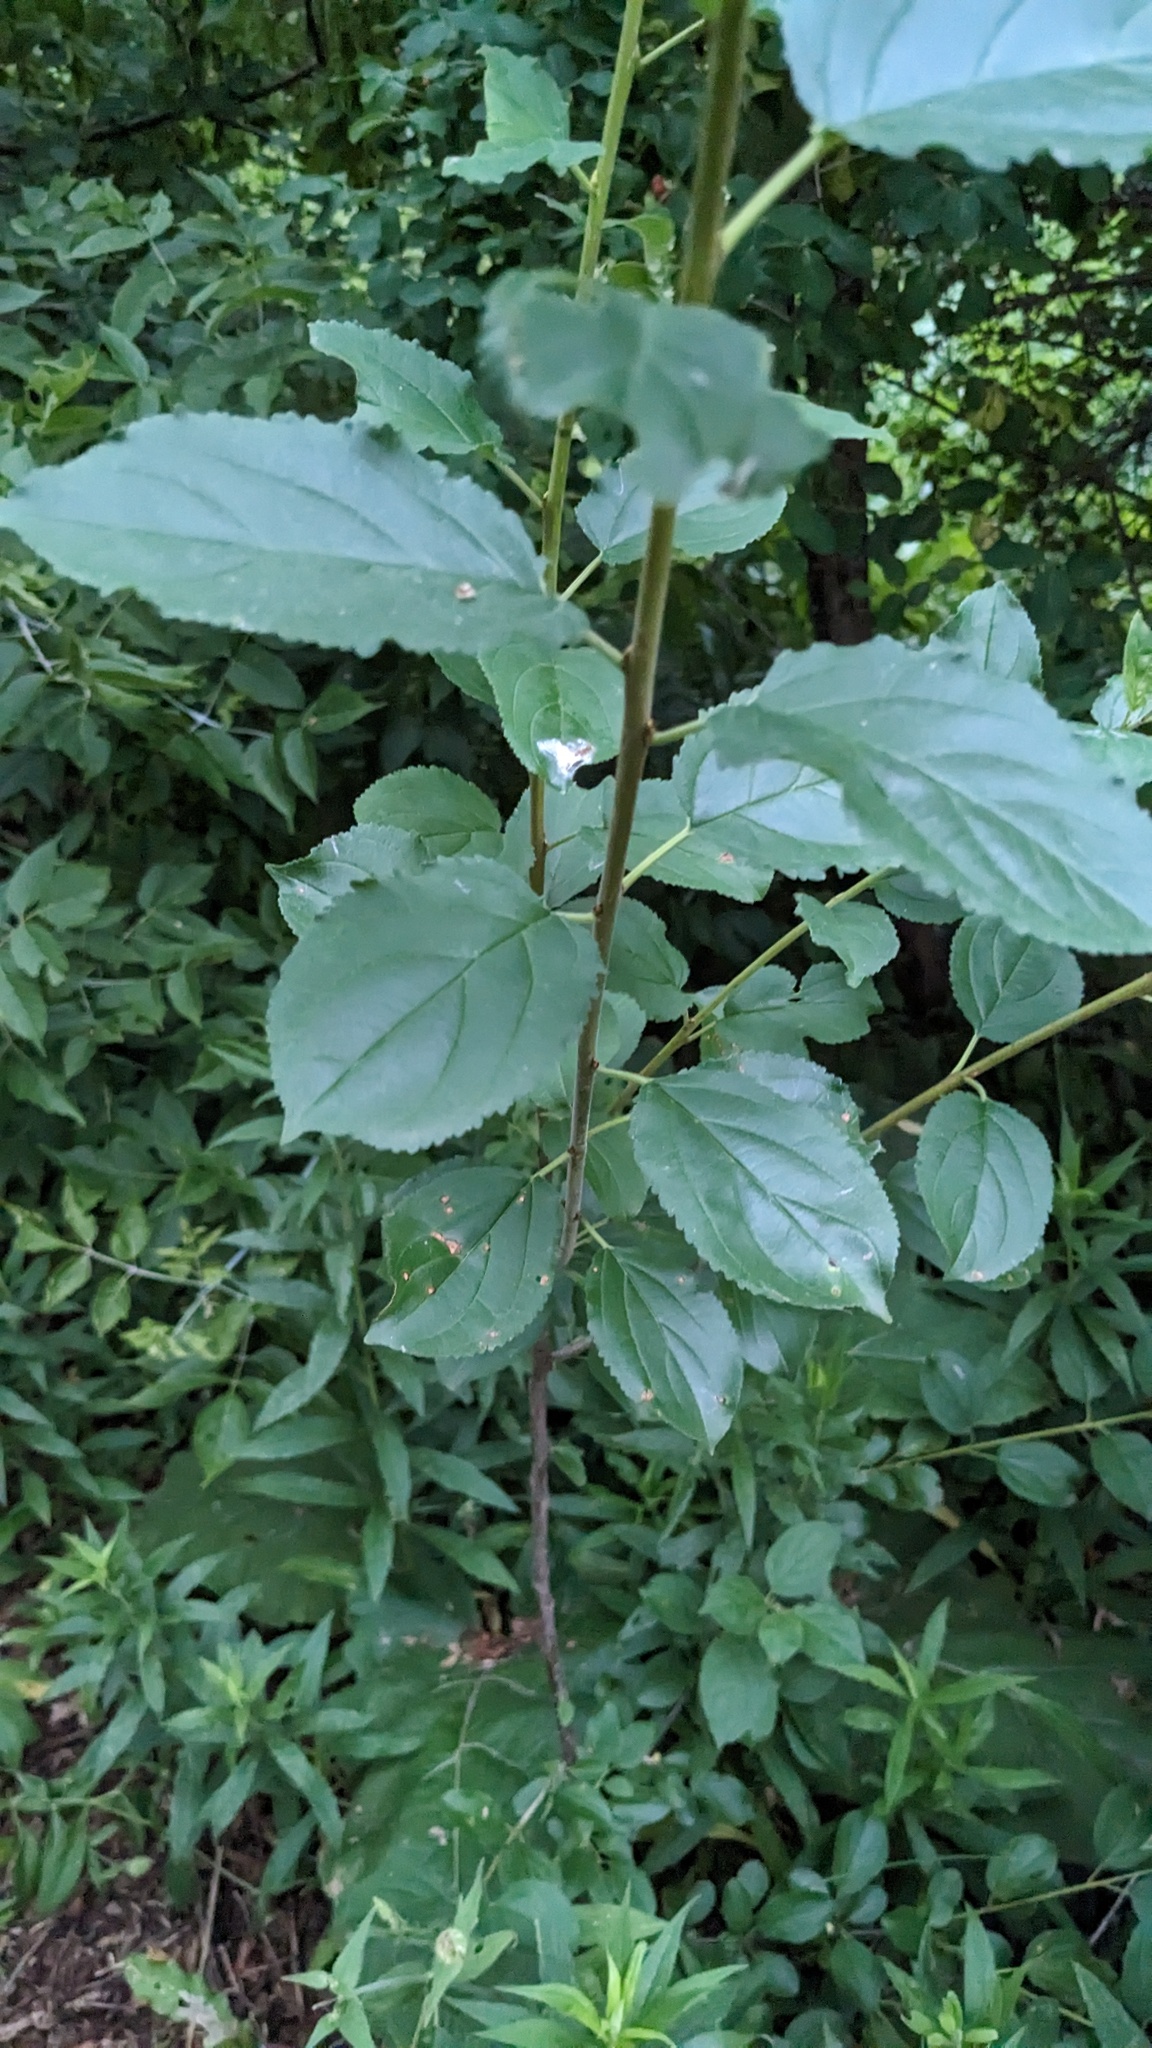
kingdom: Plantae
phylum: Tracheophyta
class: Magnoliopsida
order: Rosales
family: Rhamnaceae
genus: Rhamnus
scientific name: Rhamnus cathartica
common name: Common buckthorn
